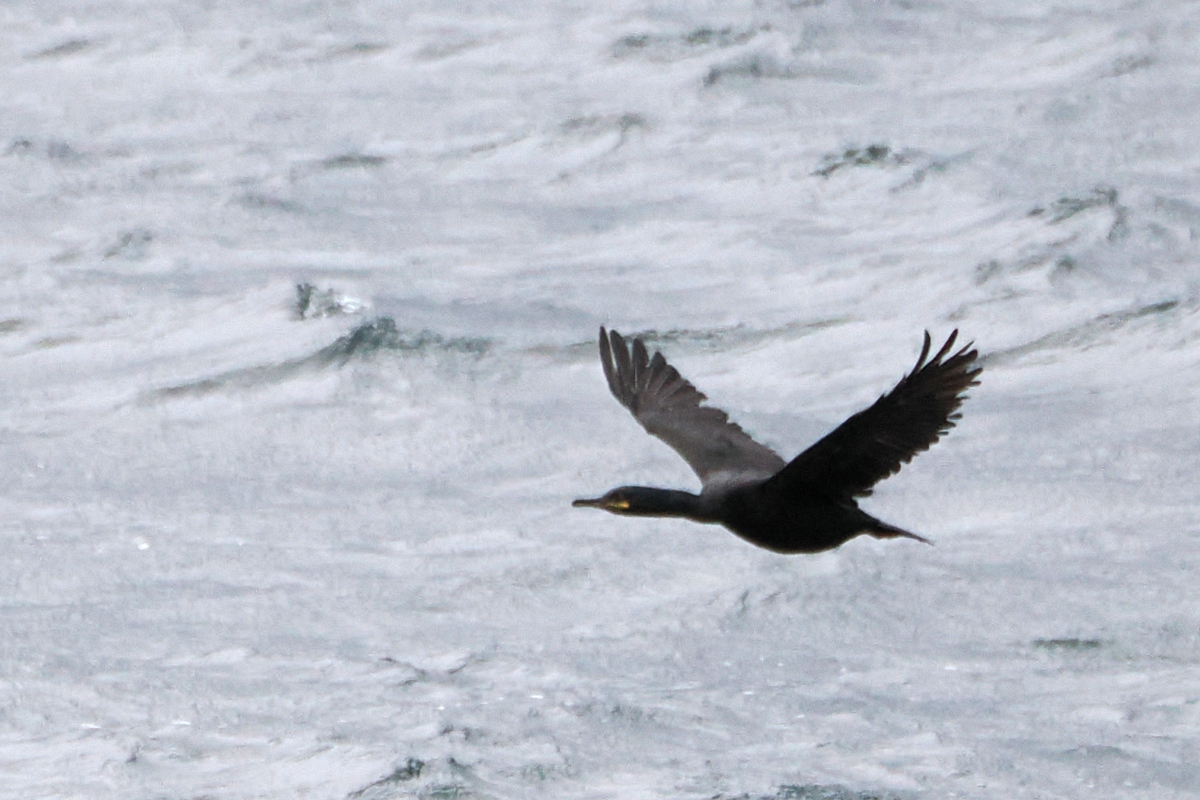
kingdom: Animalia
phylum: Chordata
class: Aves
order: Suliformes
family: Phalacrocoracidae
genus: Phalacrocorax
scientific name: Phalacrocorax aristotelis
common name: European shag
